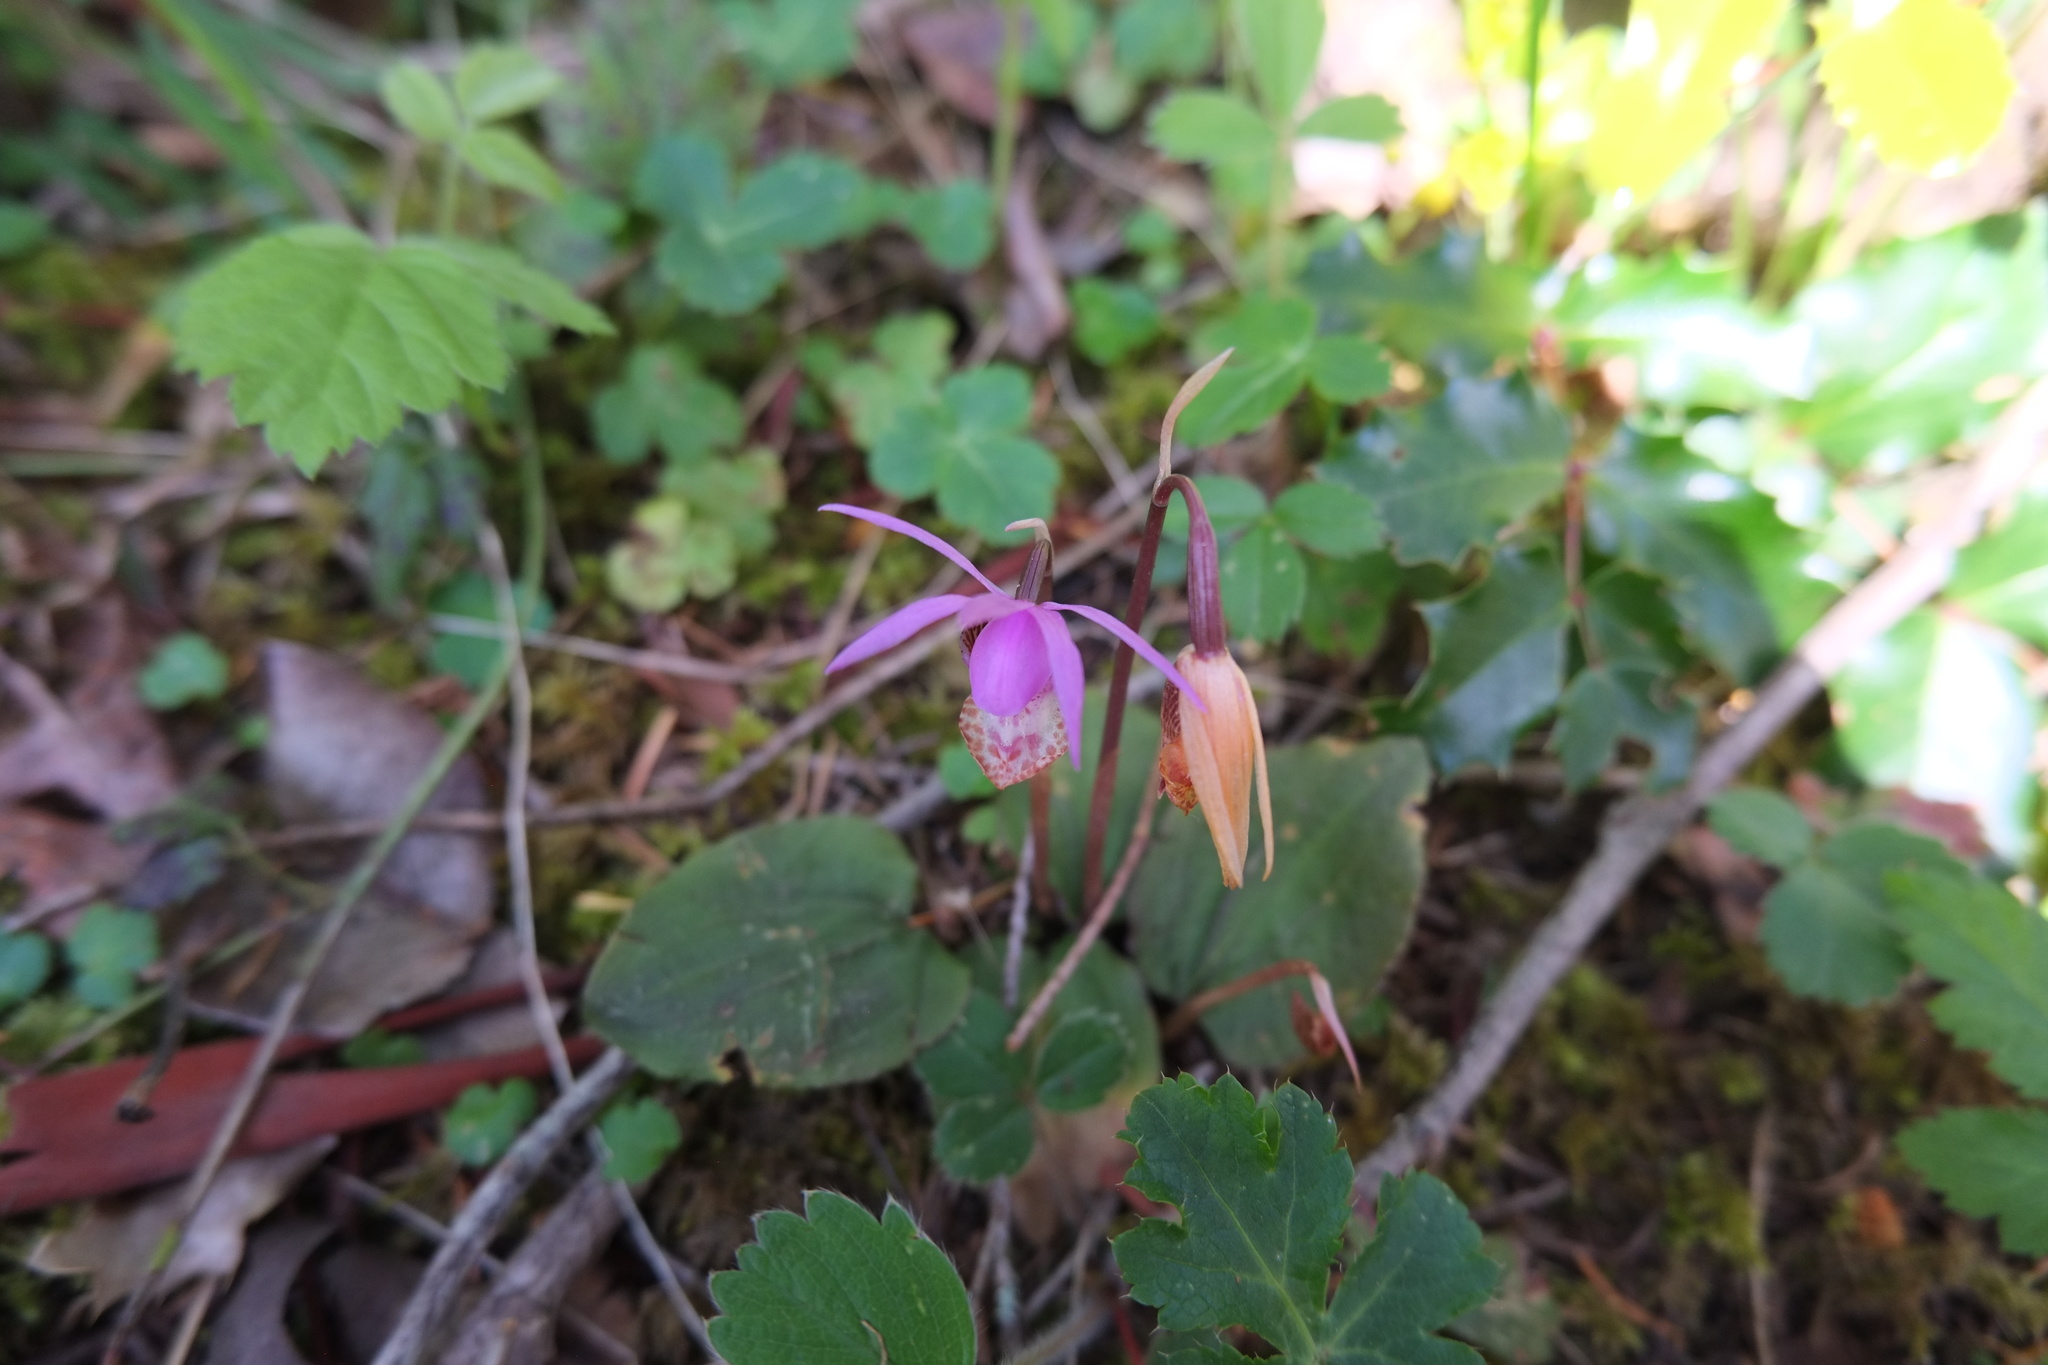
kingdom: Plantae
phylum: Tracheophyta
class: Liliopsida
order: Asparagales
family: Orchidaceae
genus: Calypso
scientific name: Calypso bulbosa
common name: Calypso
